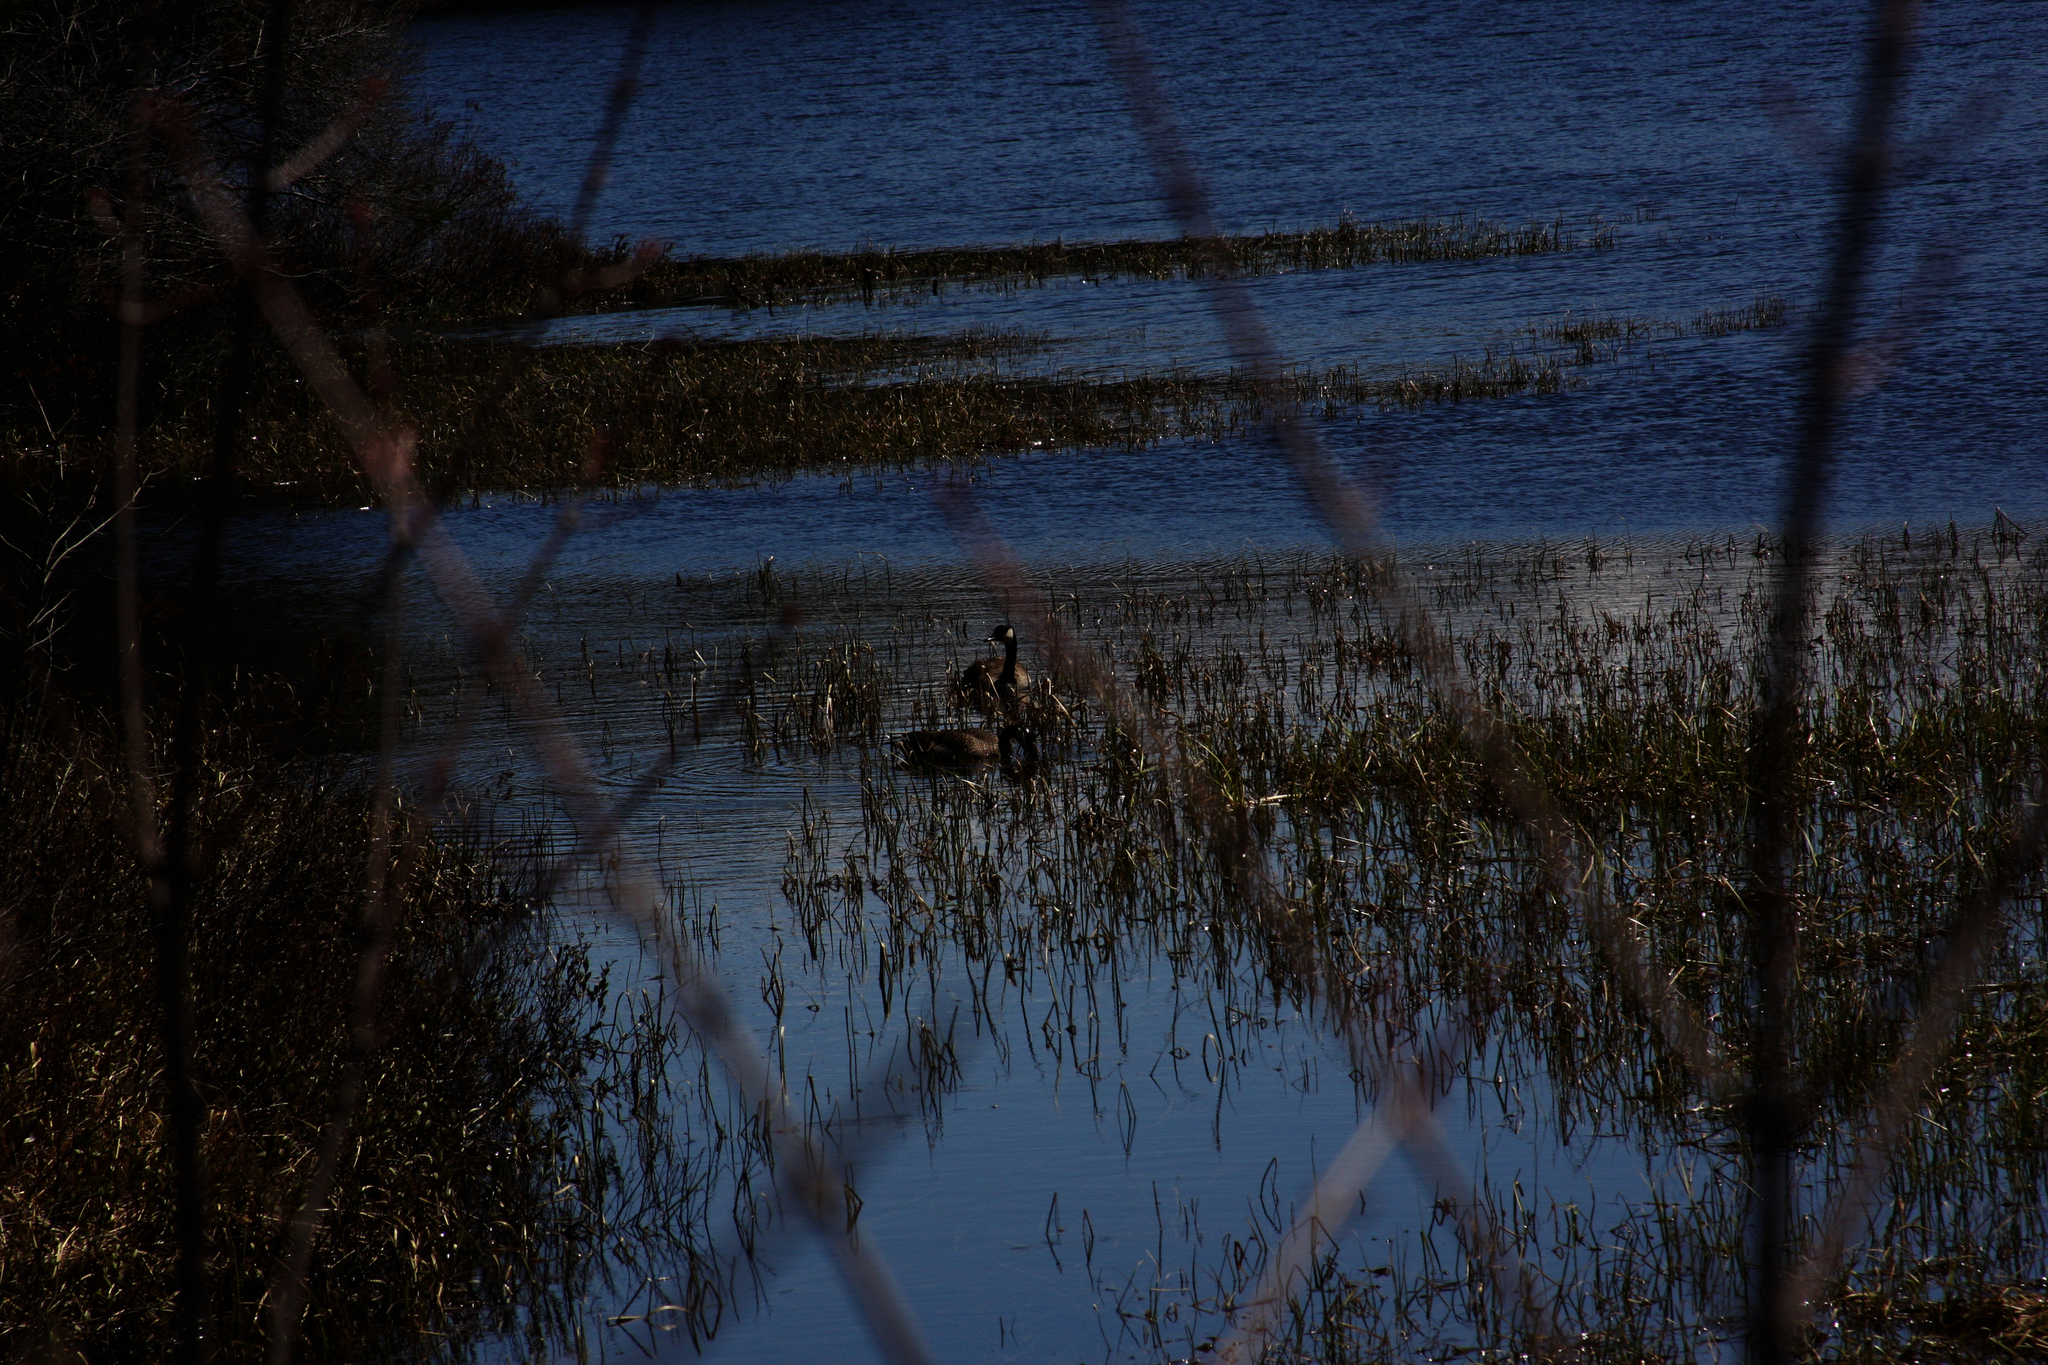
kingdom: Animalia
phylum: Chordata
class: Aves
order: Anseriformes
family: Anatidae
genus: Branta
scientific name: Branta canadensis
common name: Canada goose
